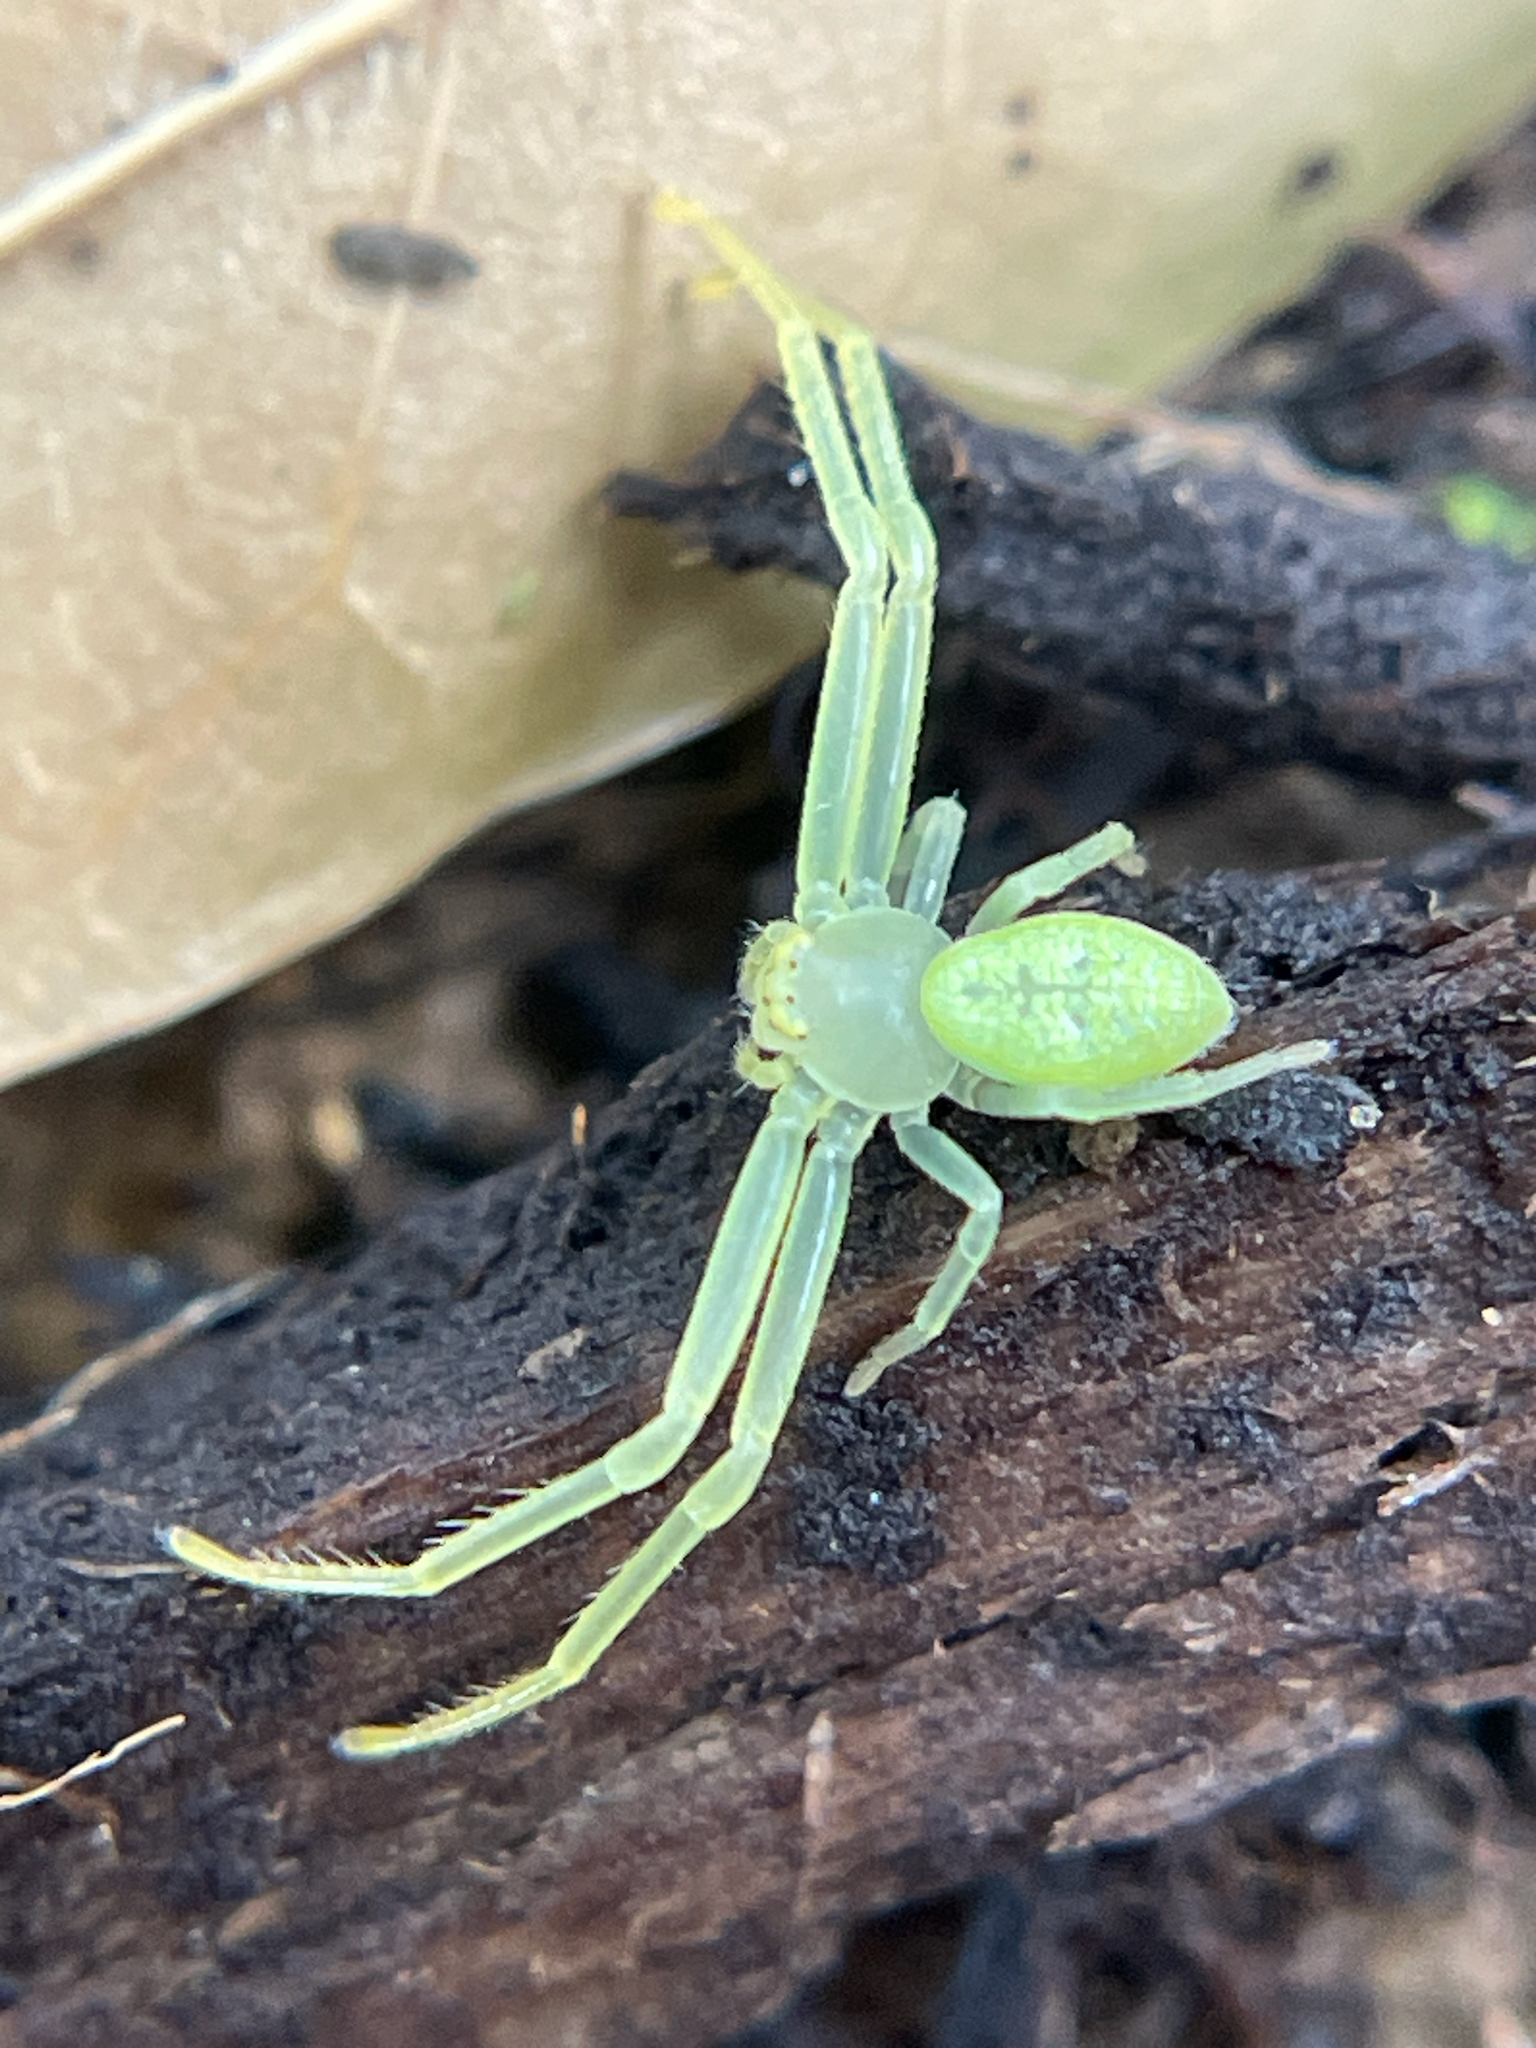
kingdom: Animalia
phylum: Arthropoda
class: Arachnida
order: Araneae
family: Thomisidae
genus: Misumessus
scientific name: Misumessus oblongus
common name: American green crab spider
